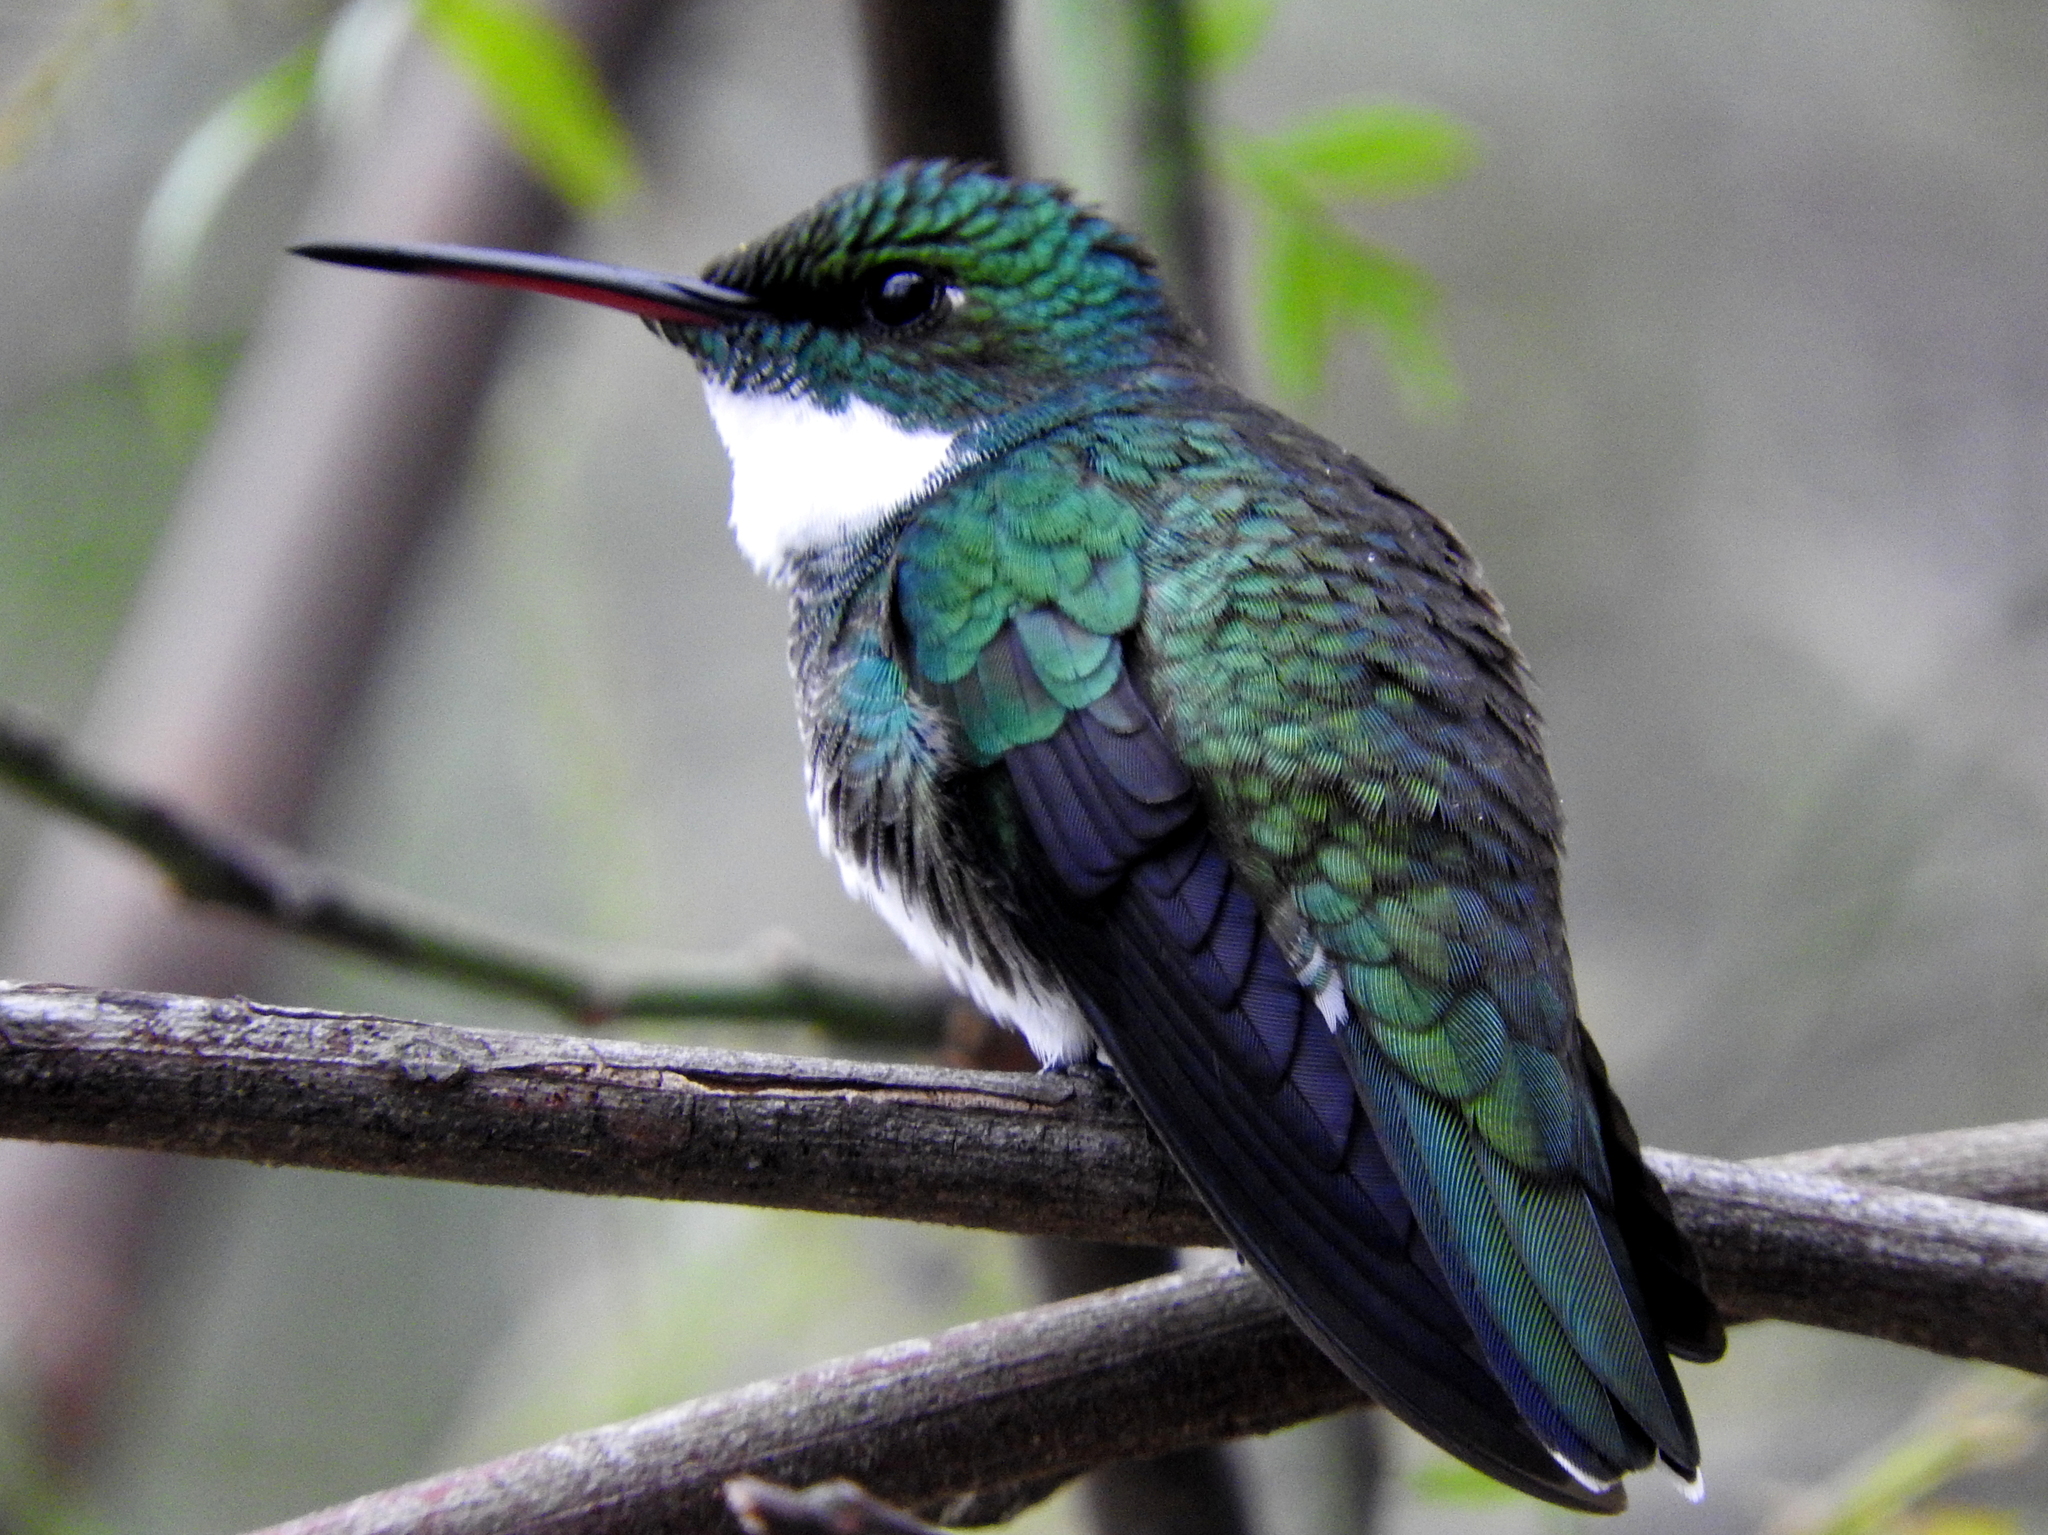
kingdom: Animalia
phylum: Chordata
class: Aves
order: Apodiformes
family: Trochilidae
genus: Leucochloris
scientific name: Leucochloris albicollis
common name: White-throated hummingbird
